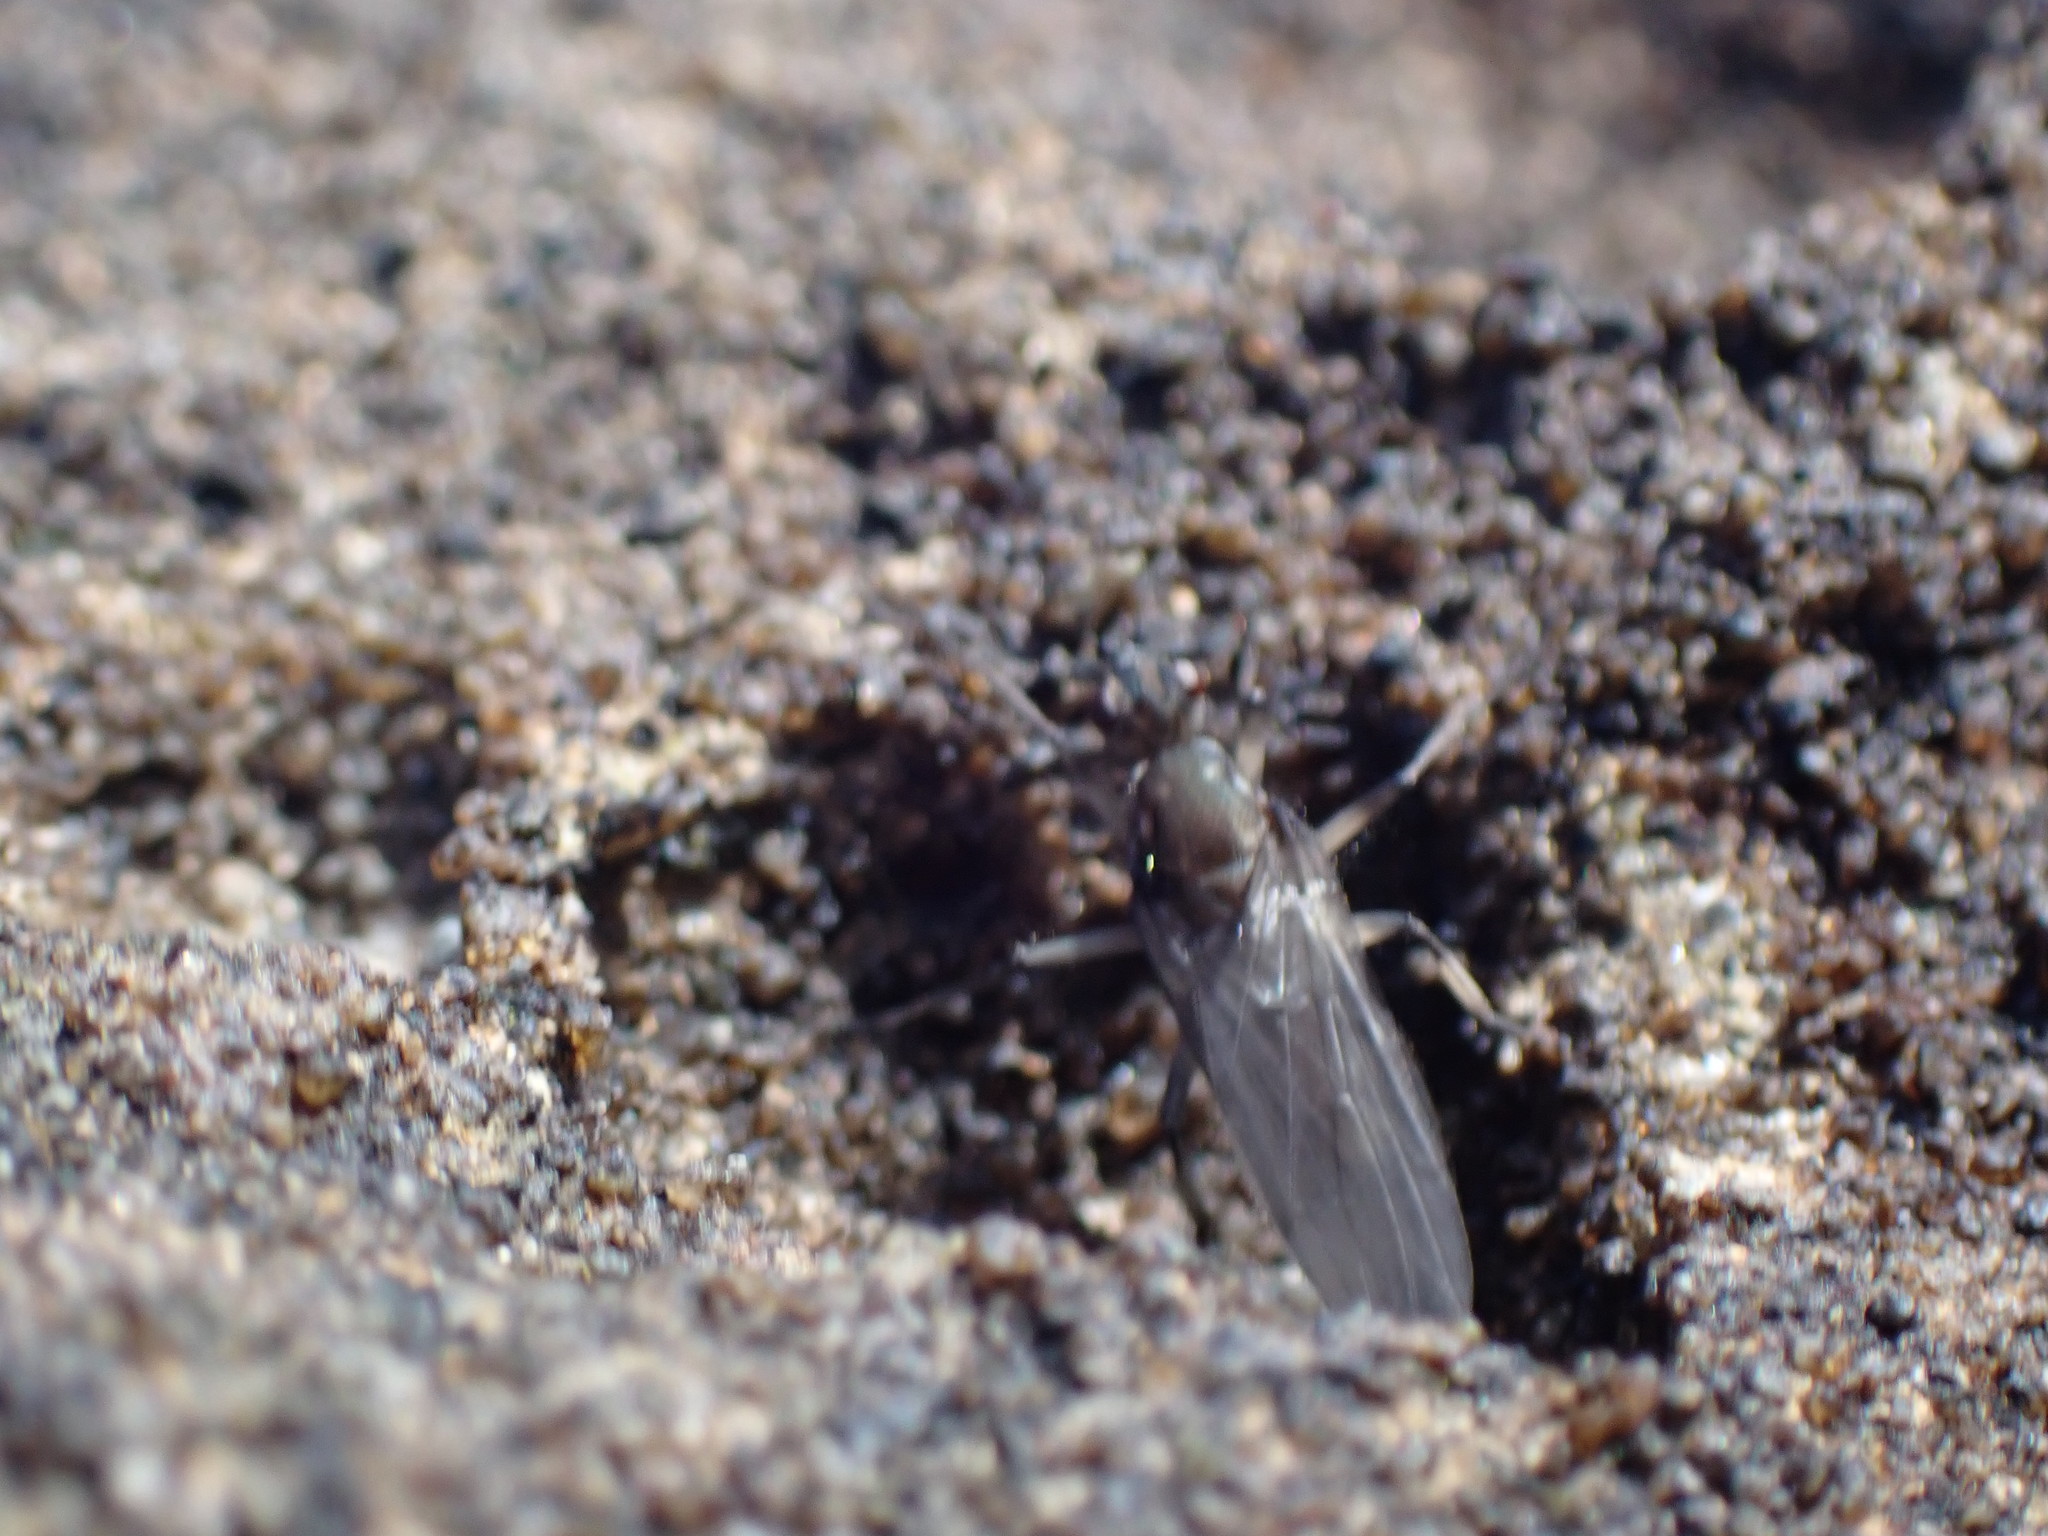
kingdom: Animalia
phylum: Arthropoda
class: Insecta
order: Diptera
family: Dryomyzidae
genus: Oedoparena
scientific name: Oedoparena glauca
